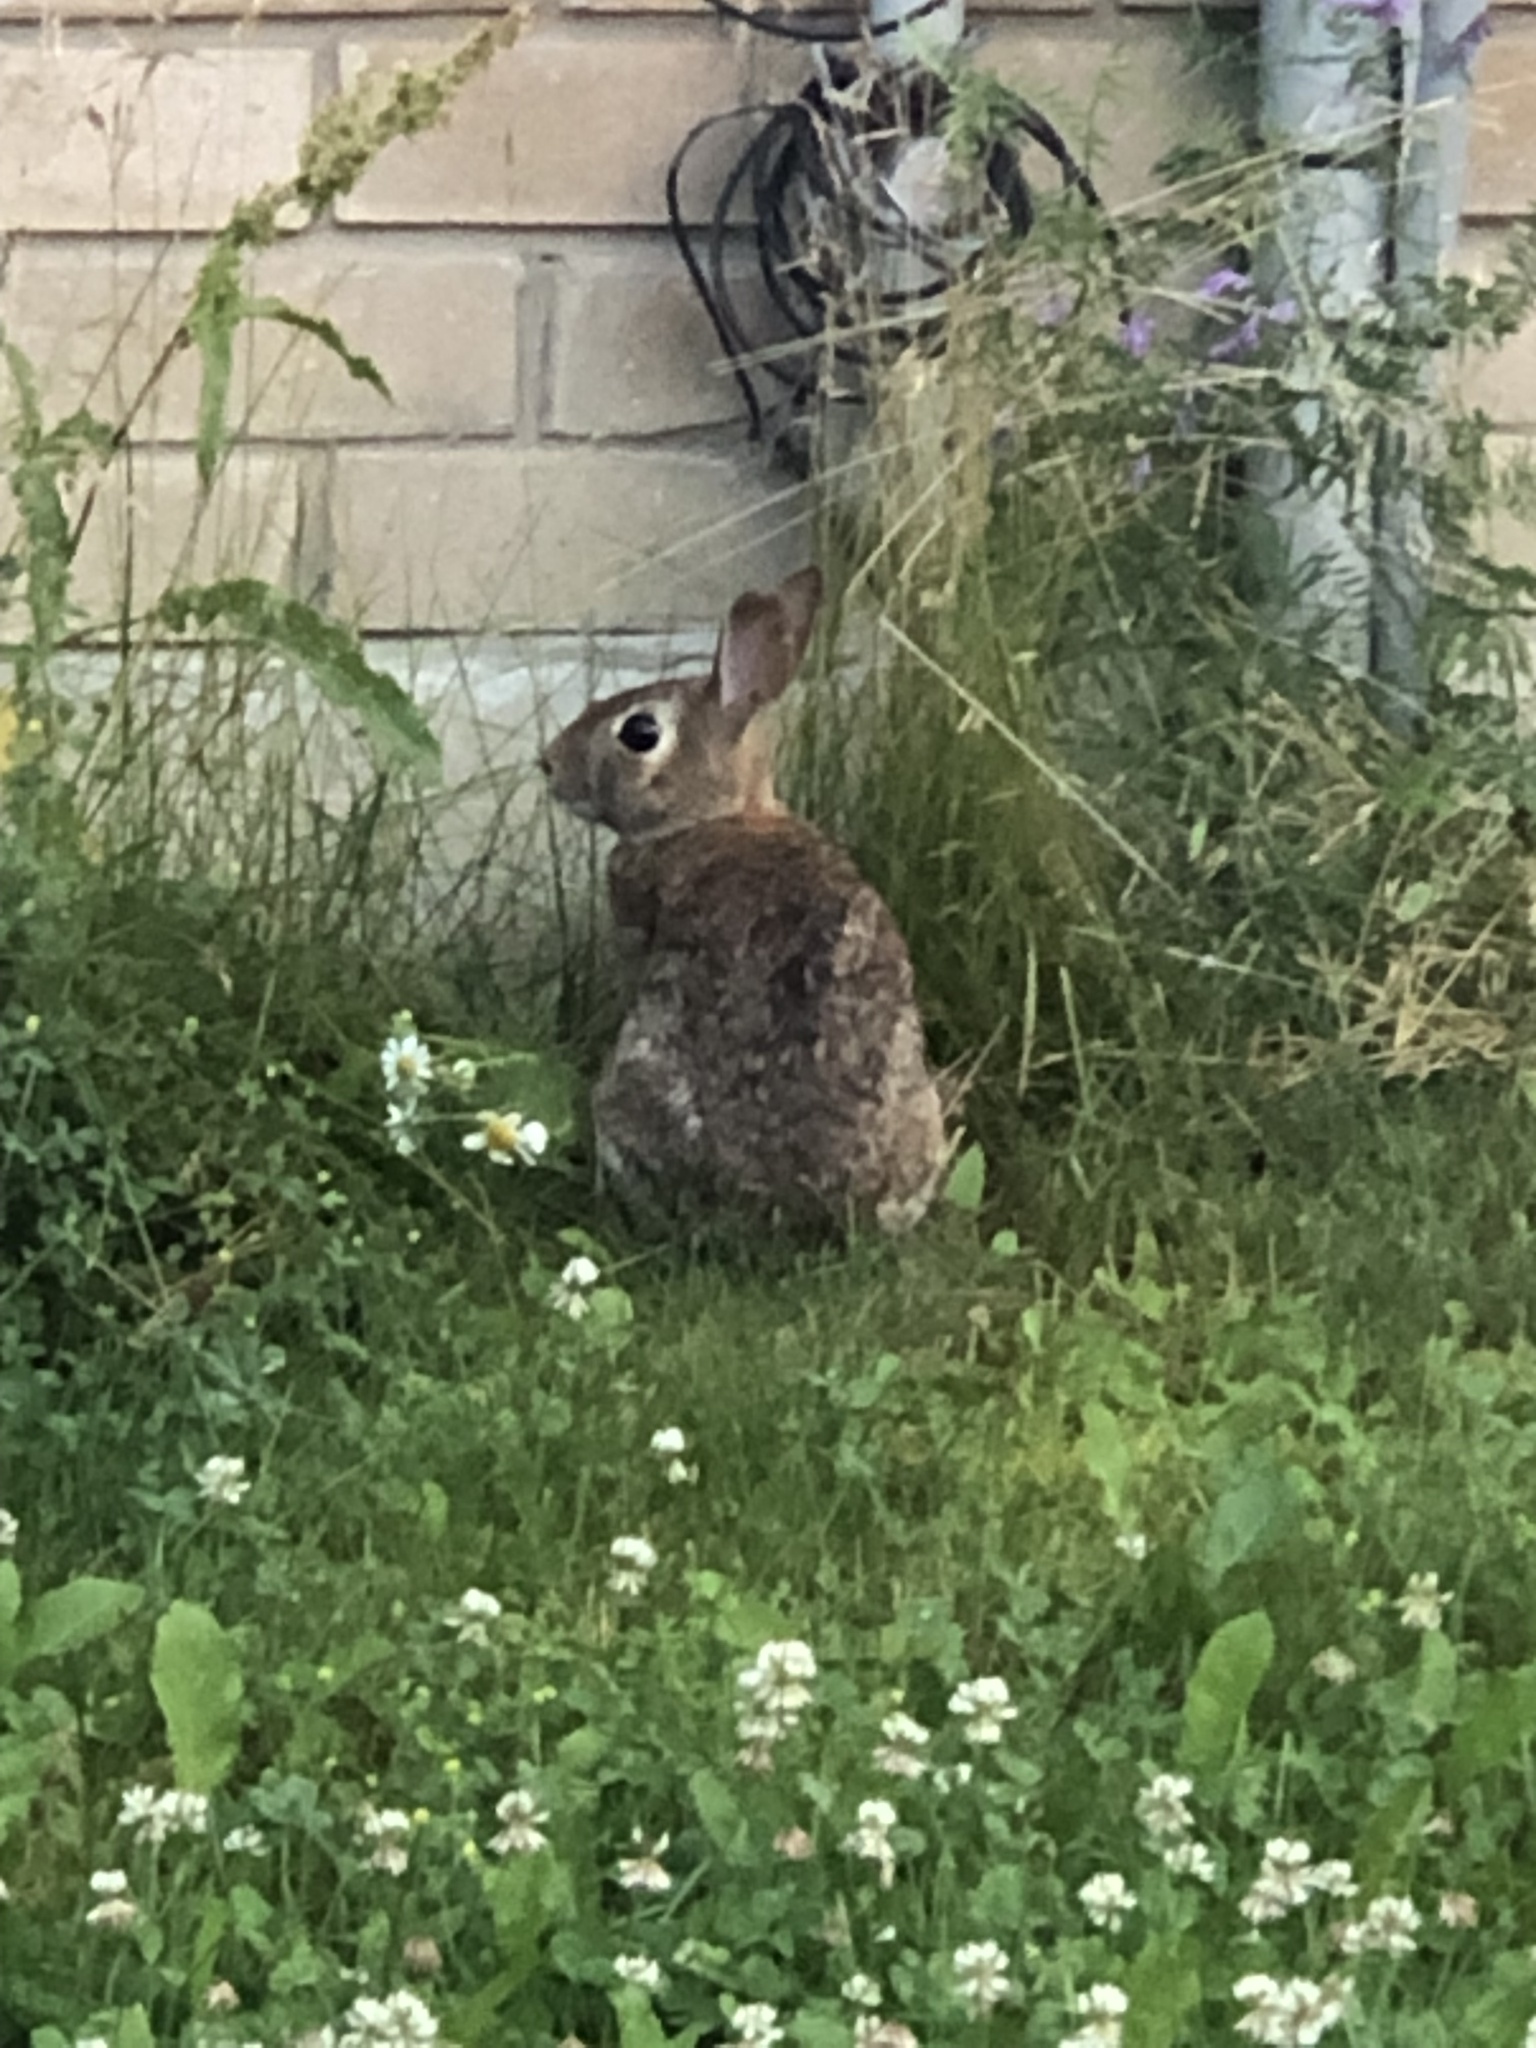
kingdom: Animalia
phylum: Chordata
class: Mammalia
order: Lagomorpha
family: Leporidae
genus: Sylvilagus
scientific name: Sylvilagus floridanus
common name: Eastern cottontail
